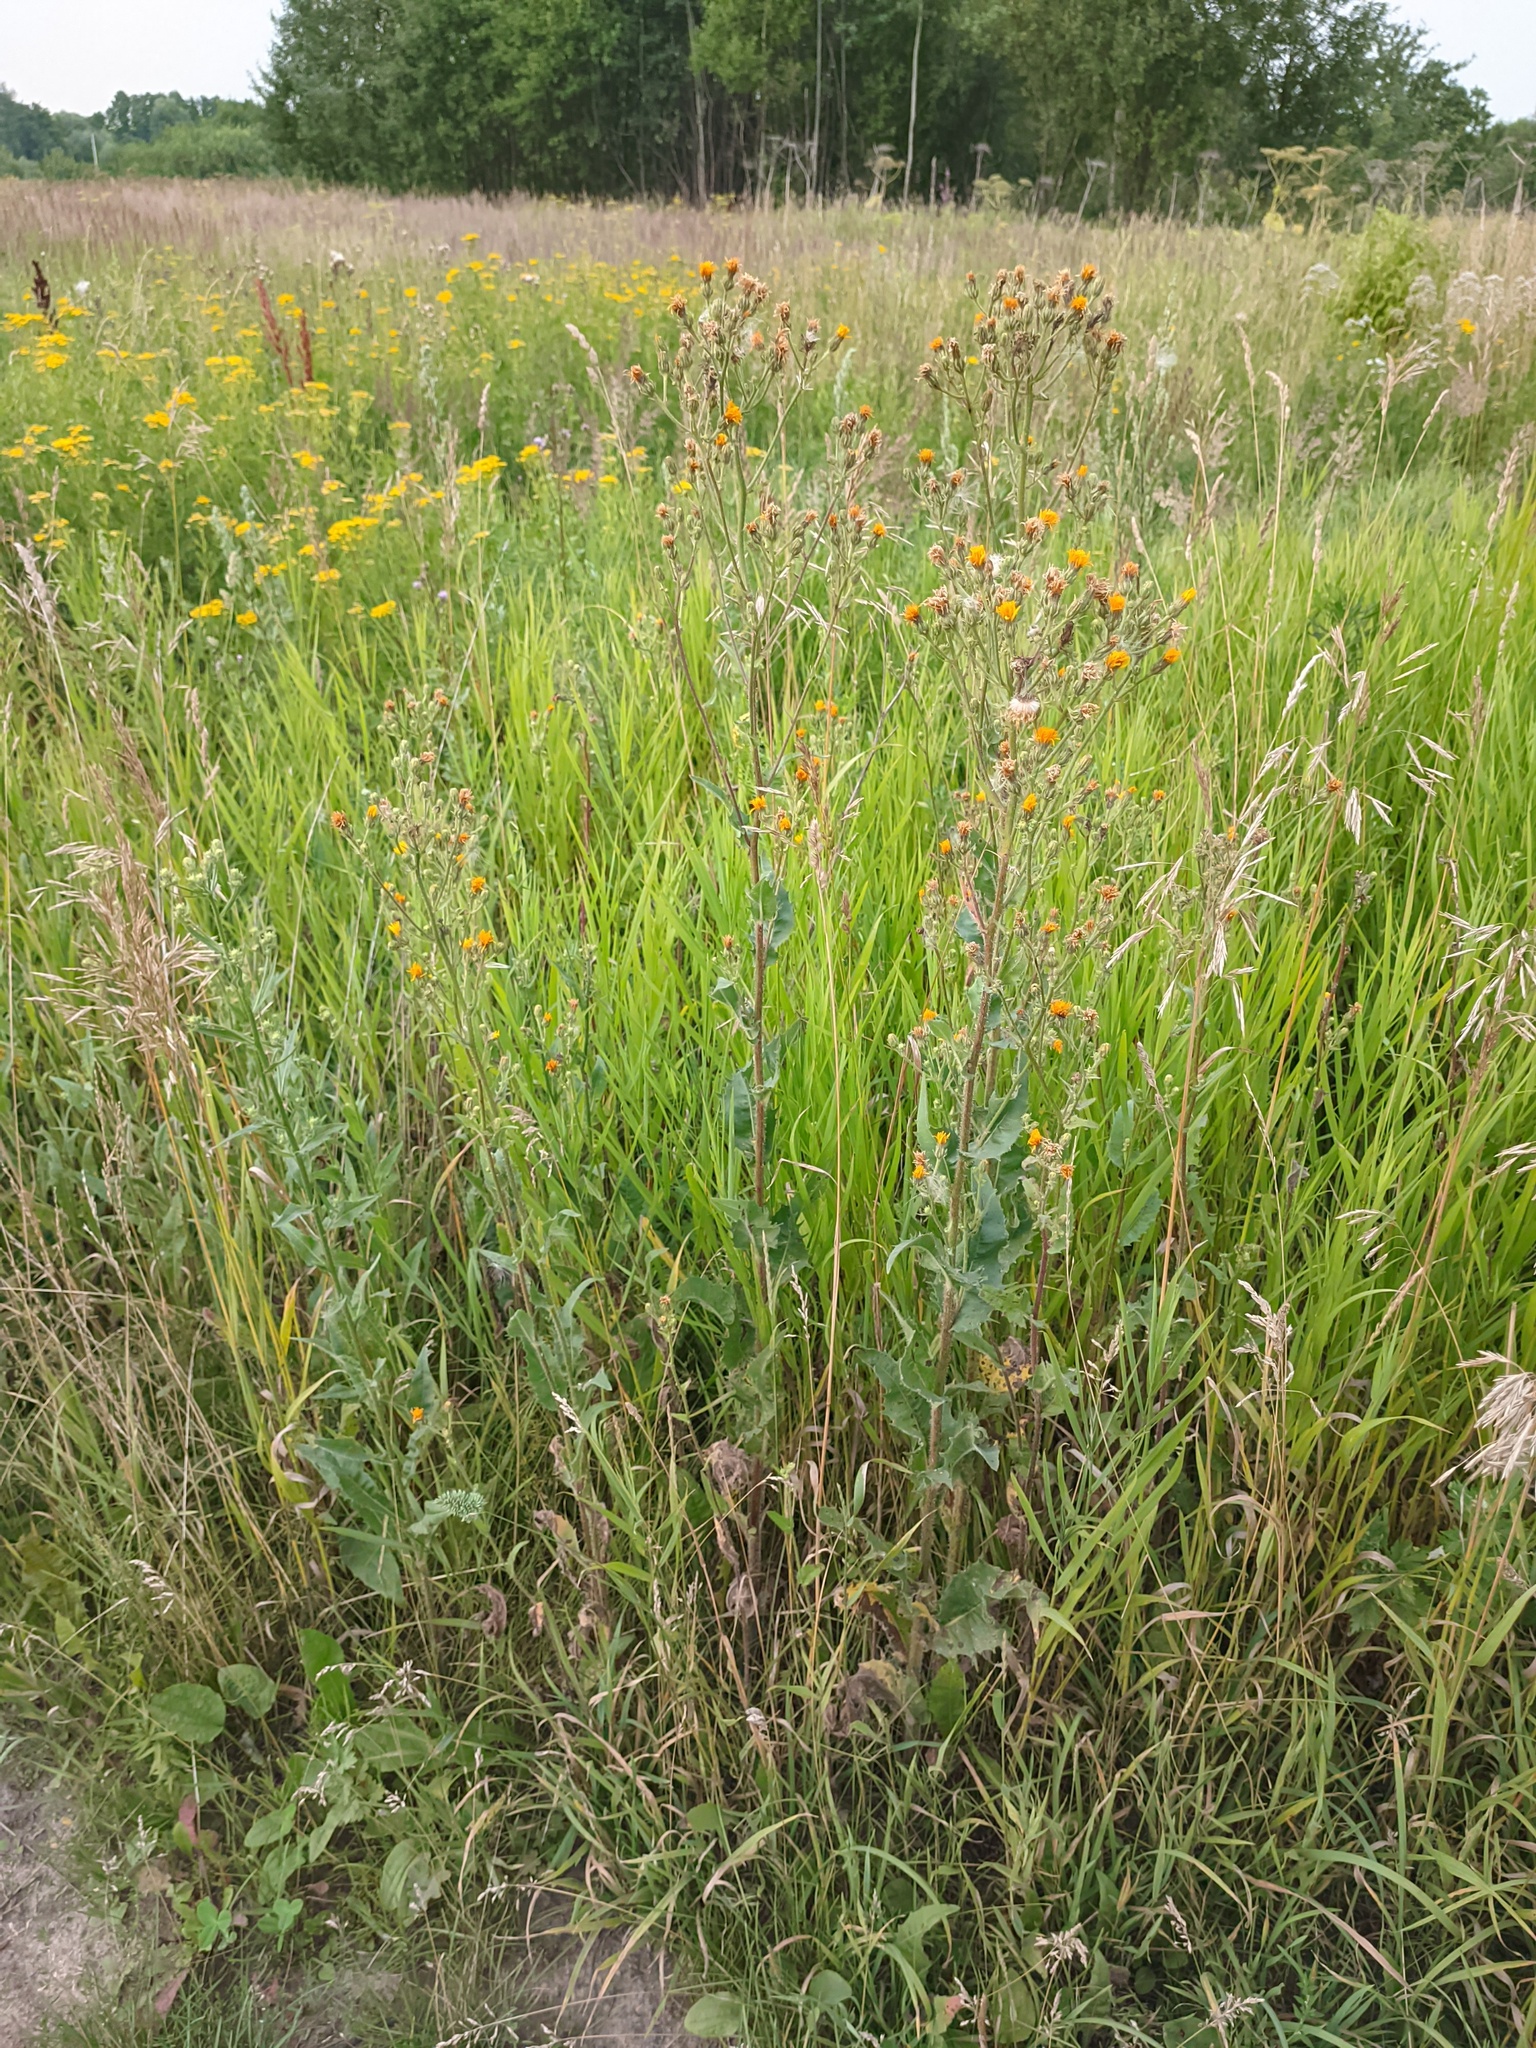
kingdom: Plantae
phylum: Tracheophyta
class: Magnoliopsida
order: Asterales
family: Asteraceae
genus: Picris
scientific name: Picris hieracioides
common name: Hawkweed oxtongue
